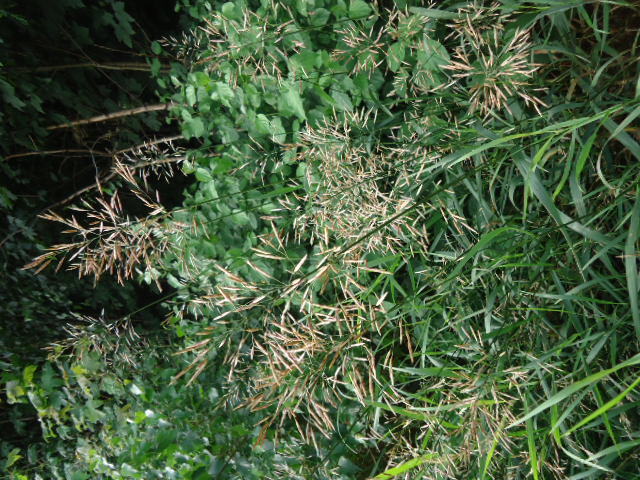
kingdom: Plantae
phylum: Tracheophyta
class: Liliopsida
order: Poales
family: Poaceae
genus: Bromus
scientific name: Bromus inermis
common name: Smooth brome
